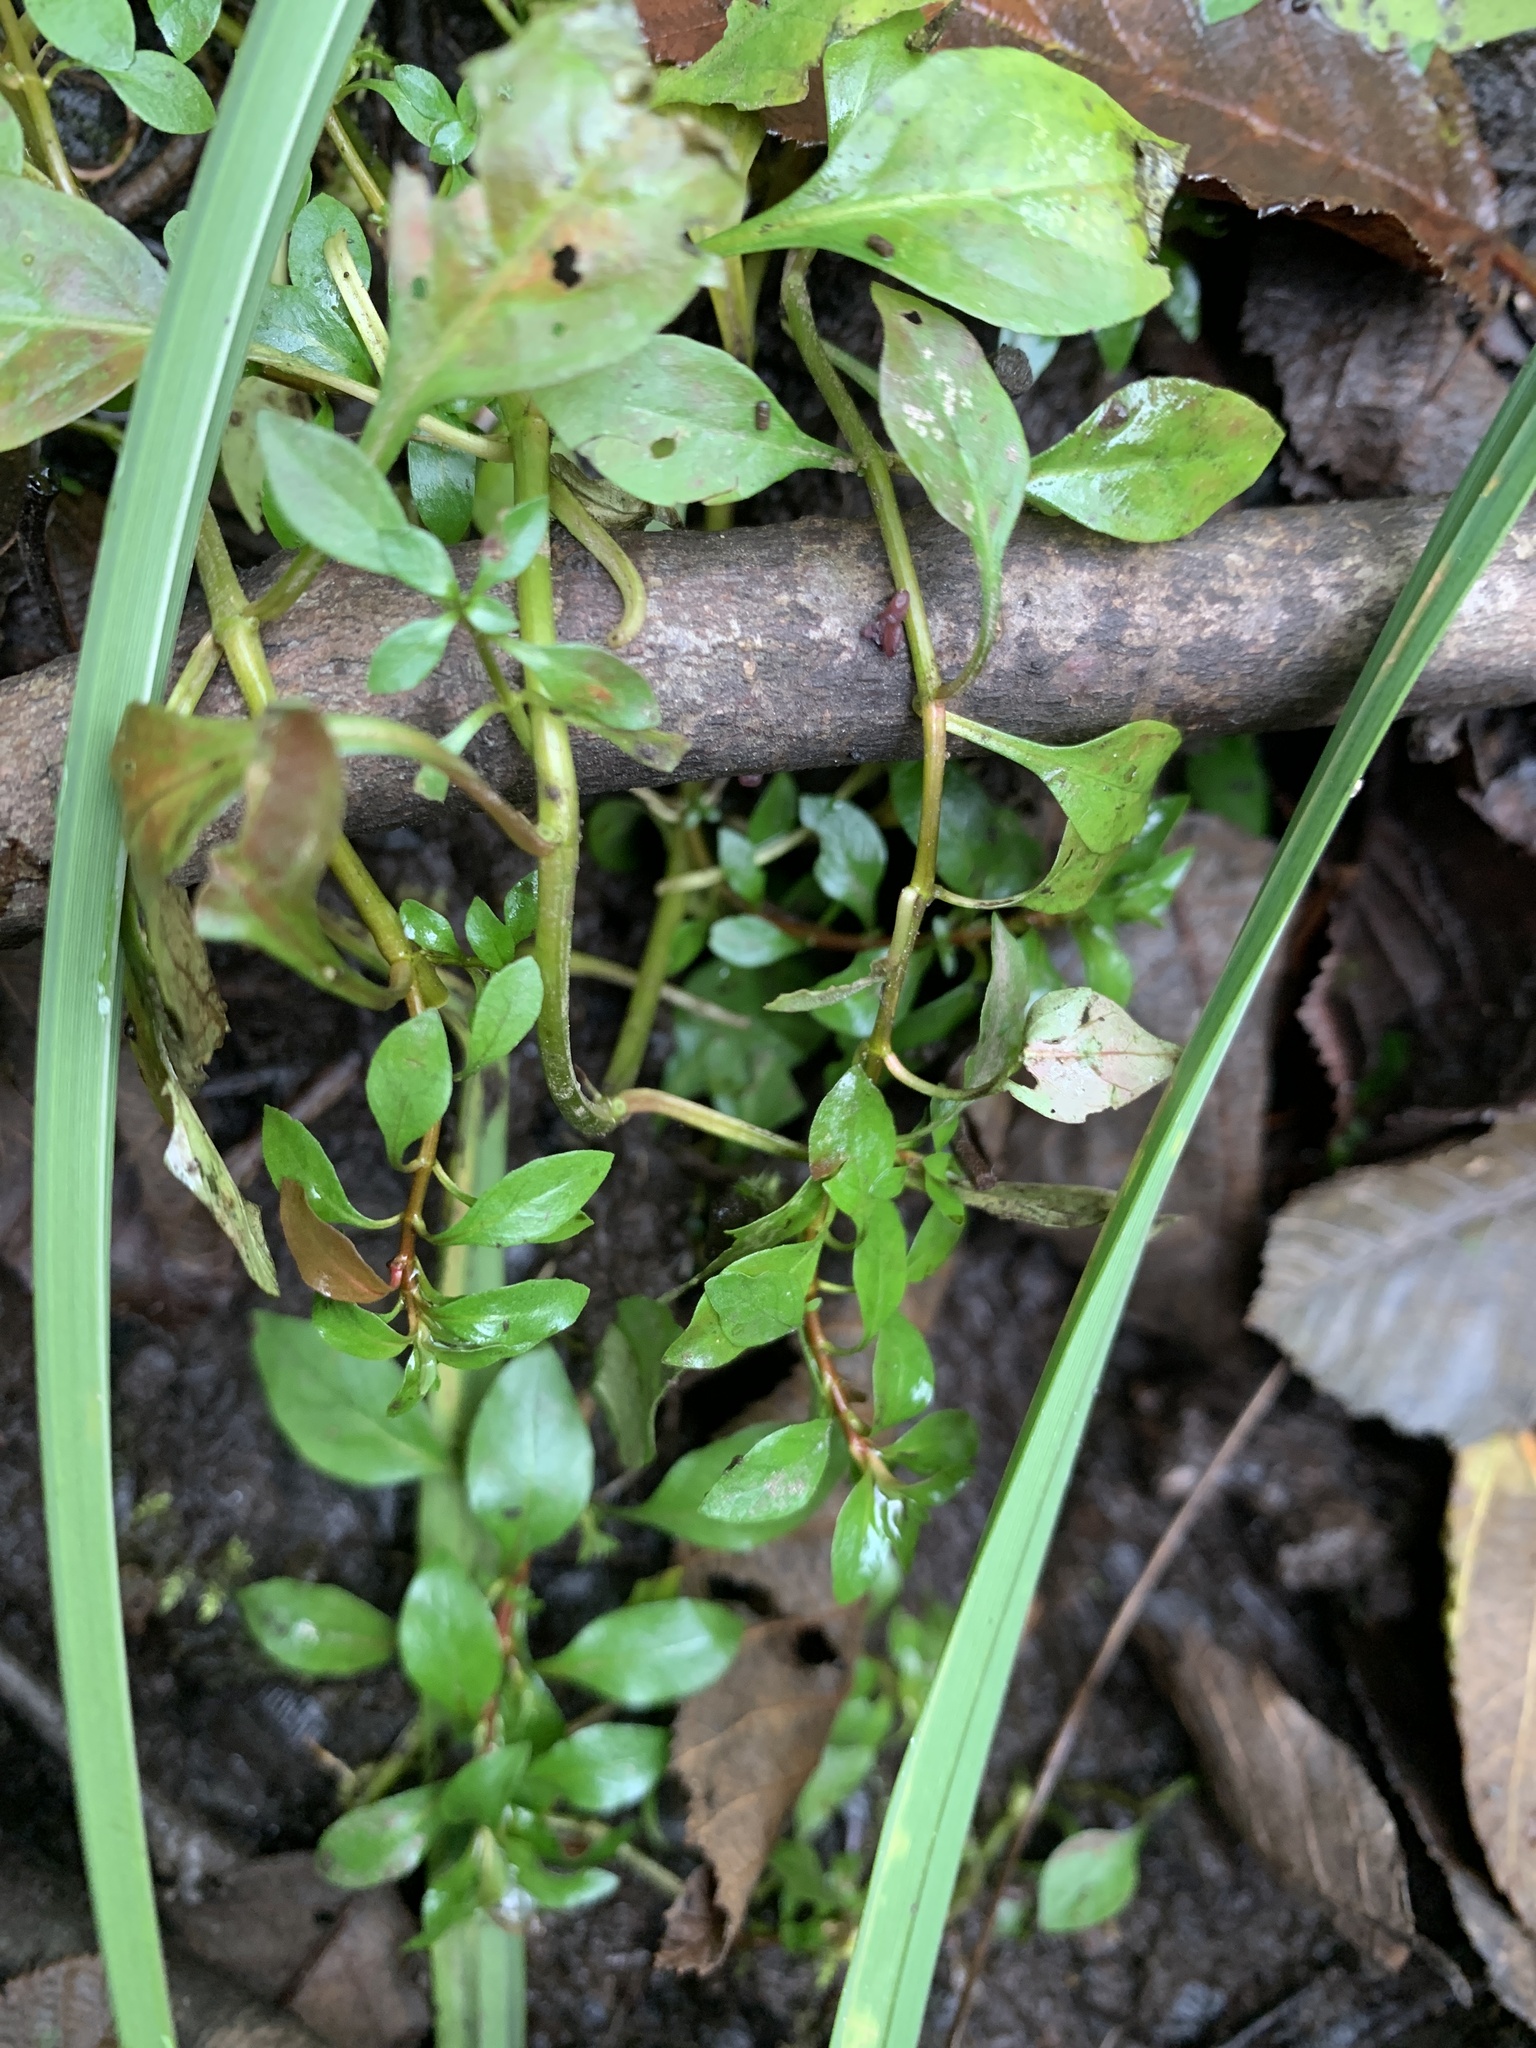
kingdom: Plantae
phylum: Tracheophyta
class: Magnoliopsida
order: Myrtales
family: Onagraceae
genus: Ludwigia
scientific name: Ludwigia palustris
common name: Hampshire-purslane
